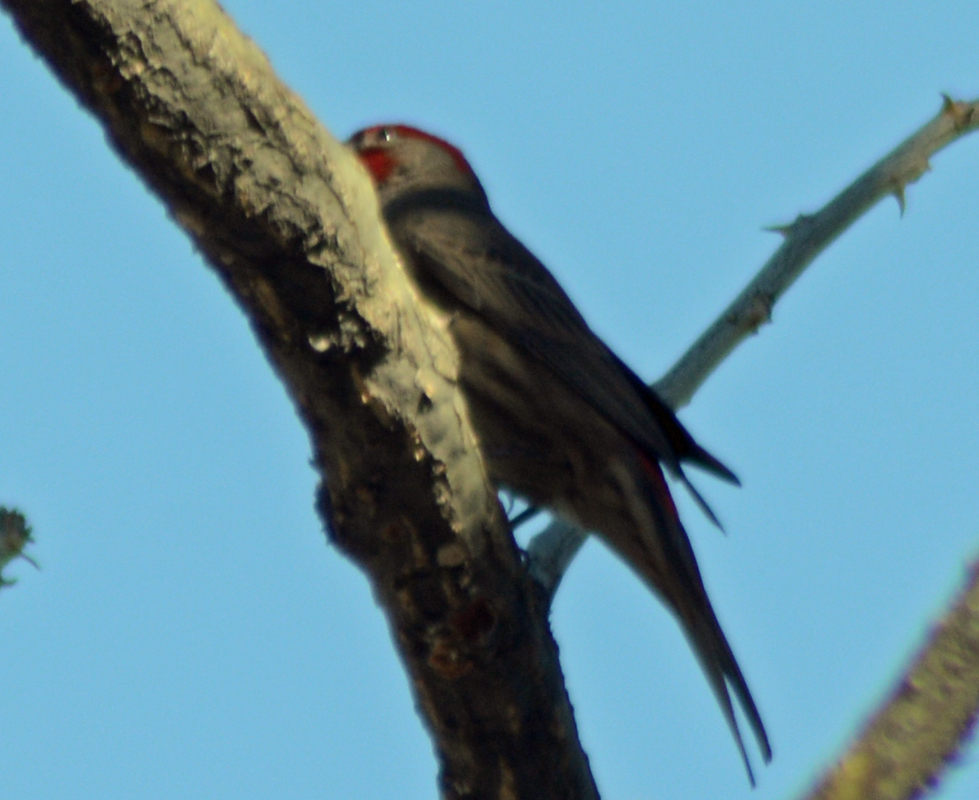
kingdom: Animalia
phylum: Chordata
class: Aves
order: Passeriformes
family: Fringillidae
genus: Haemorhous
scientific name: Haemorhous mexicanus
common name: House finch
